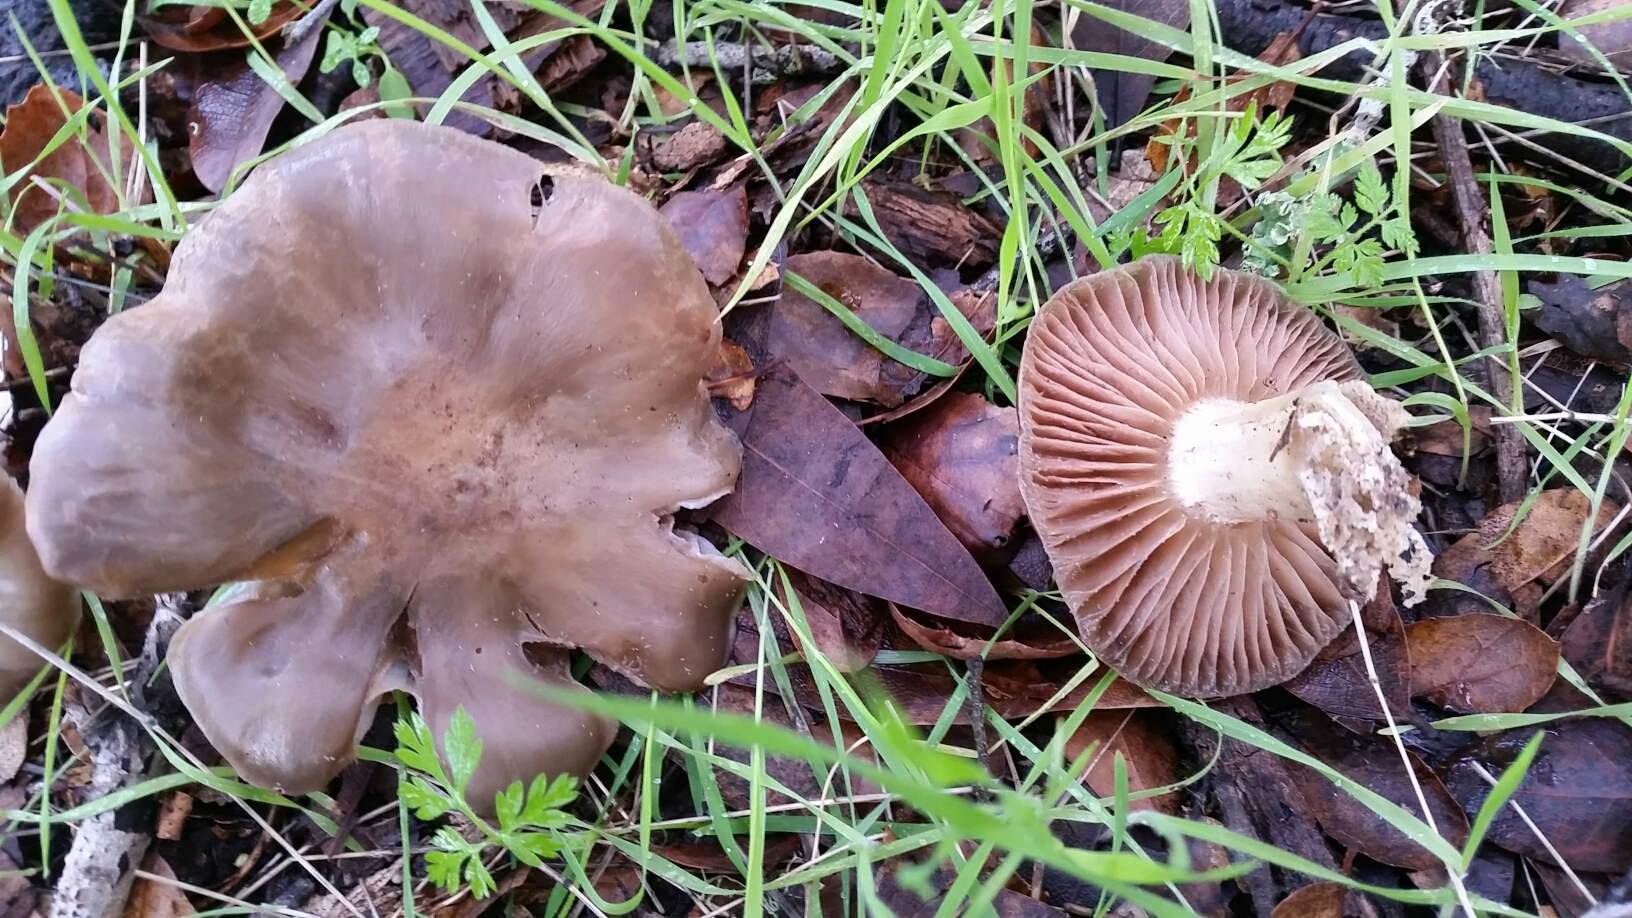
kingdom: Fungi
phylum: Basidiomycota
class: Agaricomycetes
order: Agaricales
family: Tricholomataceae
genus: Collybia
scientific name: Collybia
